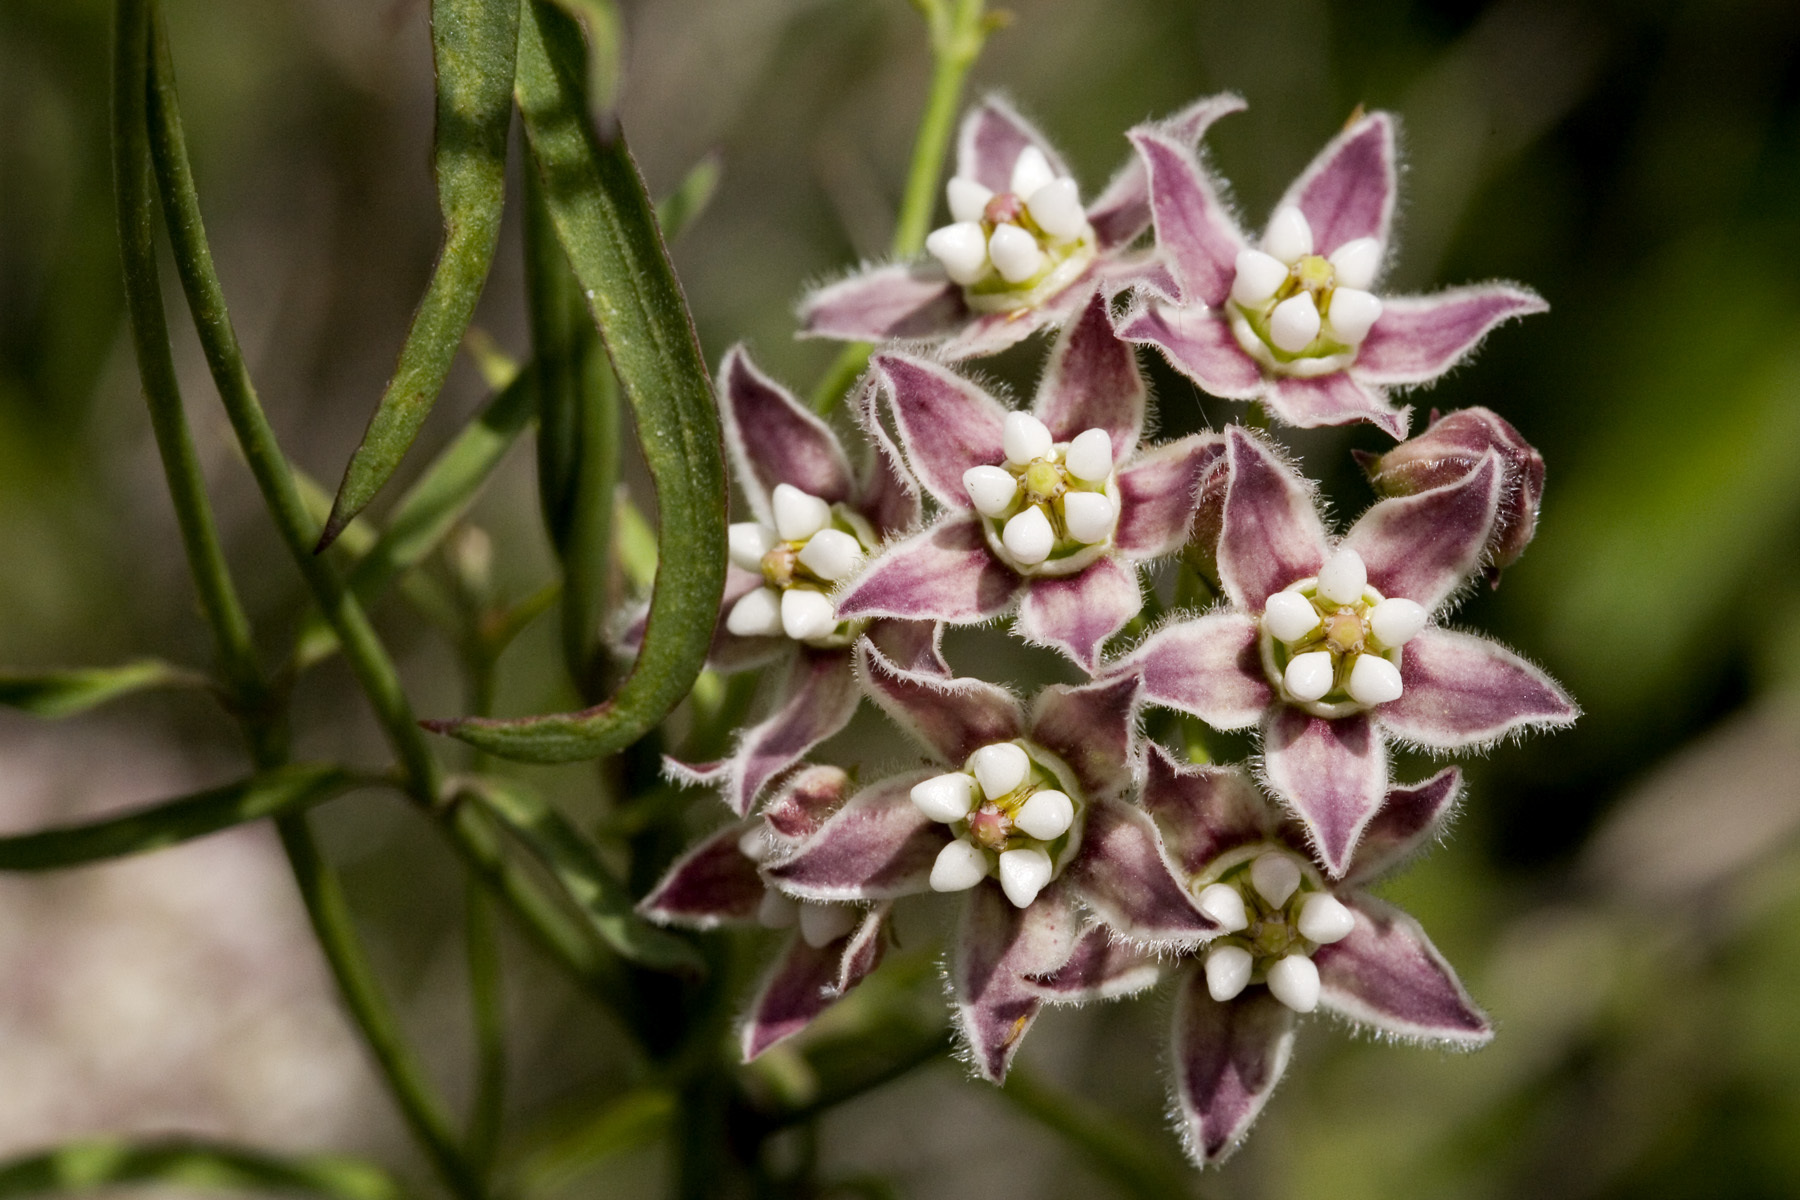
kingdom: Plantae
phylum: Tracheophyta
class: Magnoliopsida
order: Gentianales
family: Apocynaceae
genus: Funastrum
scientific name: Funastrum heterophyllum
